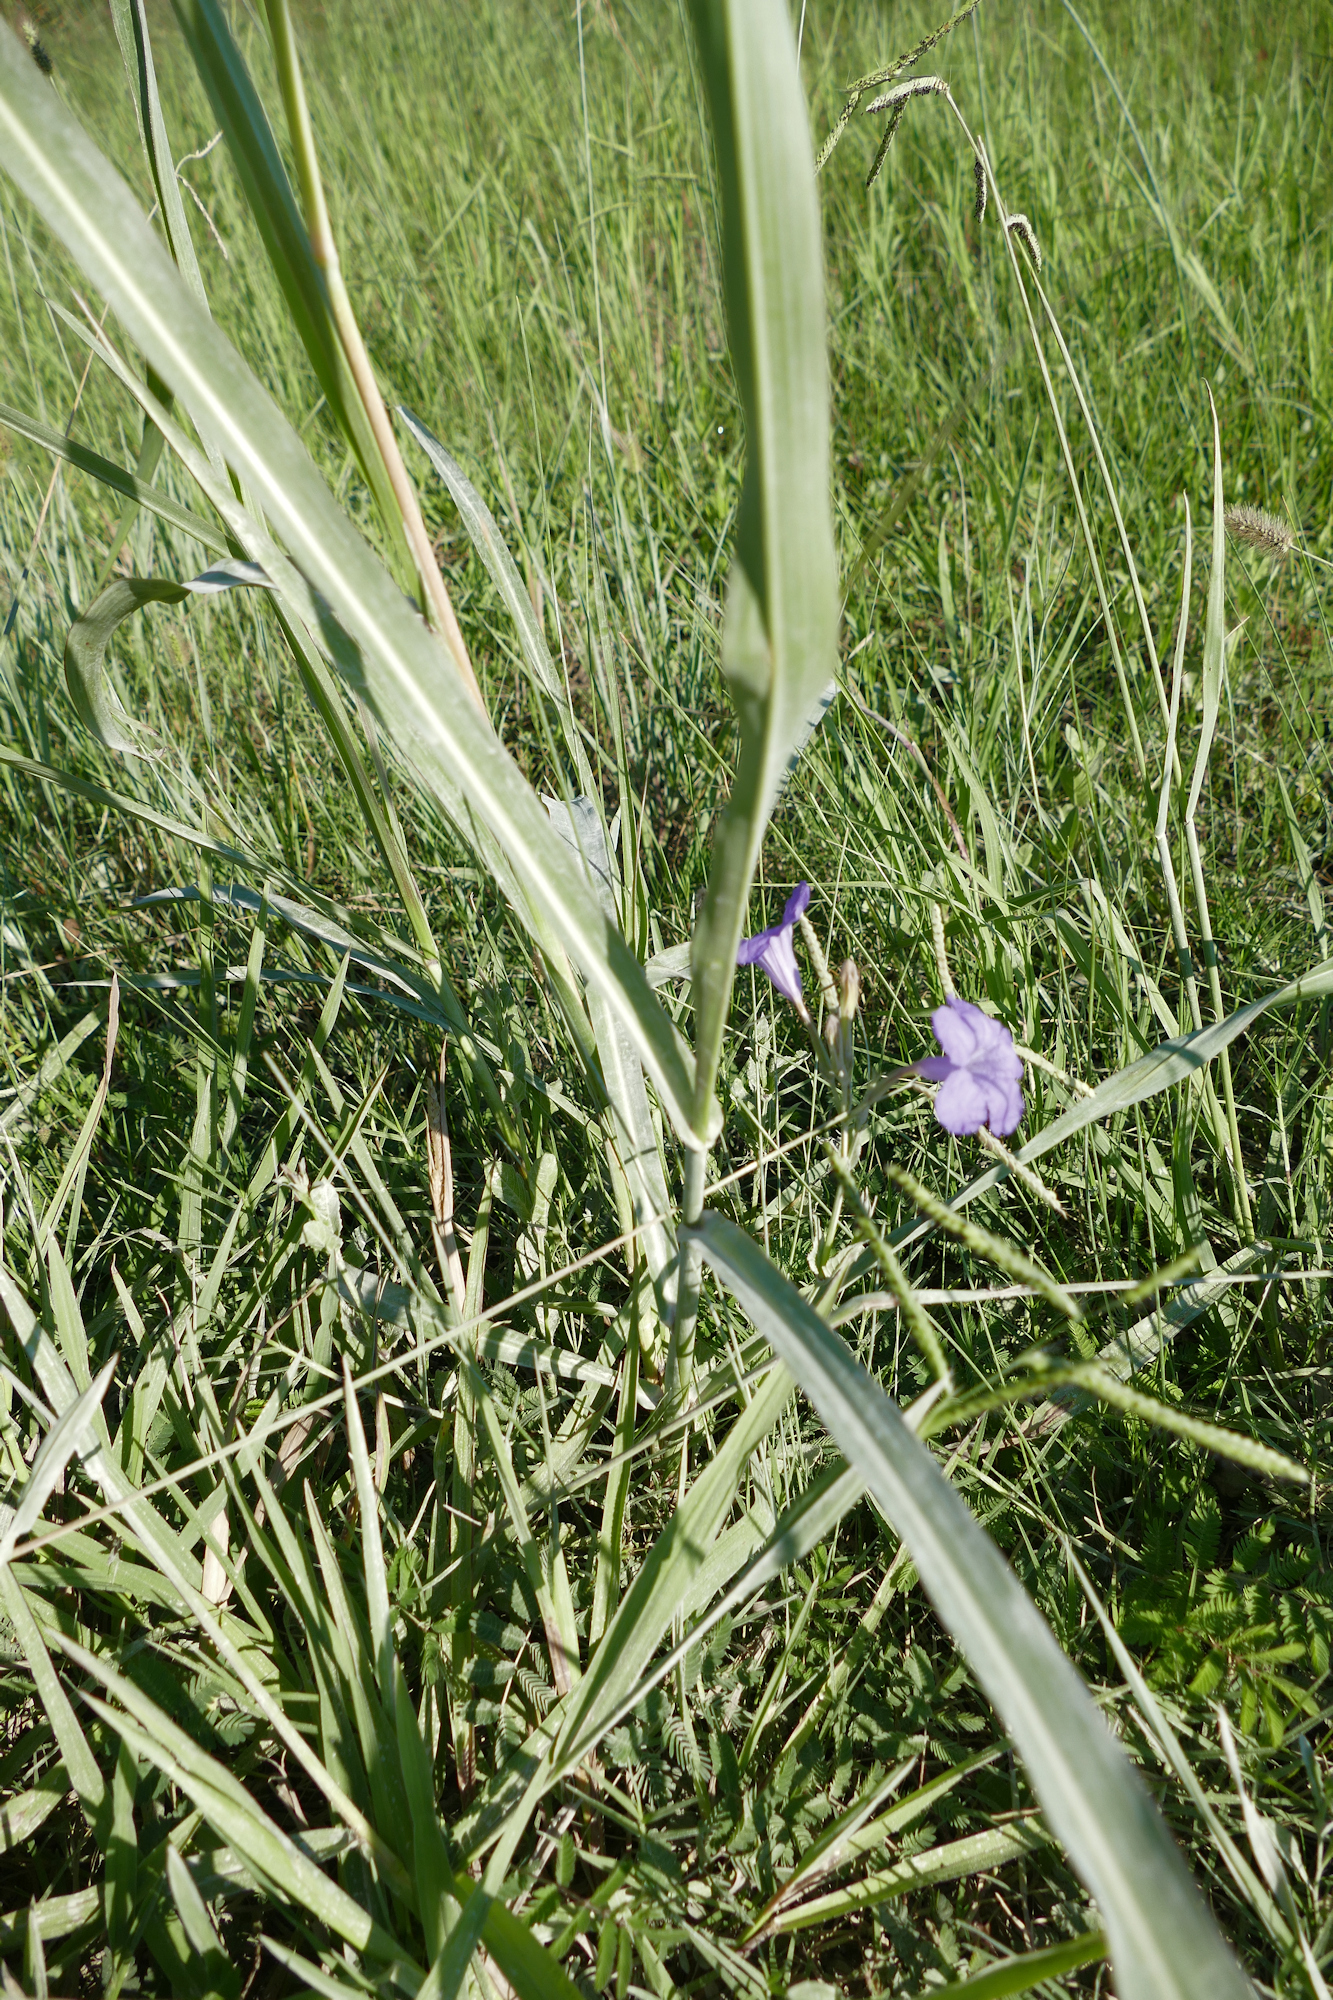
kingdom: Plantae
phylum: Tracheophyta
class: Liliopsida
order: Poales
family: Poaceae
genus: Sorghum
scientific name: Sorghum halepense
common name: Johnson-grass
